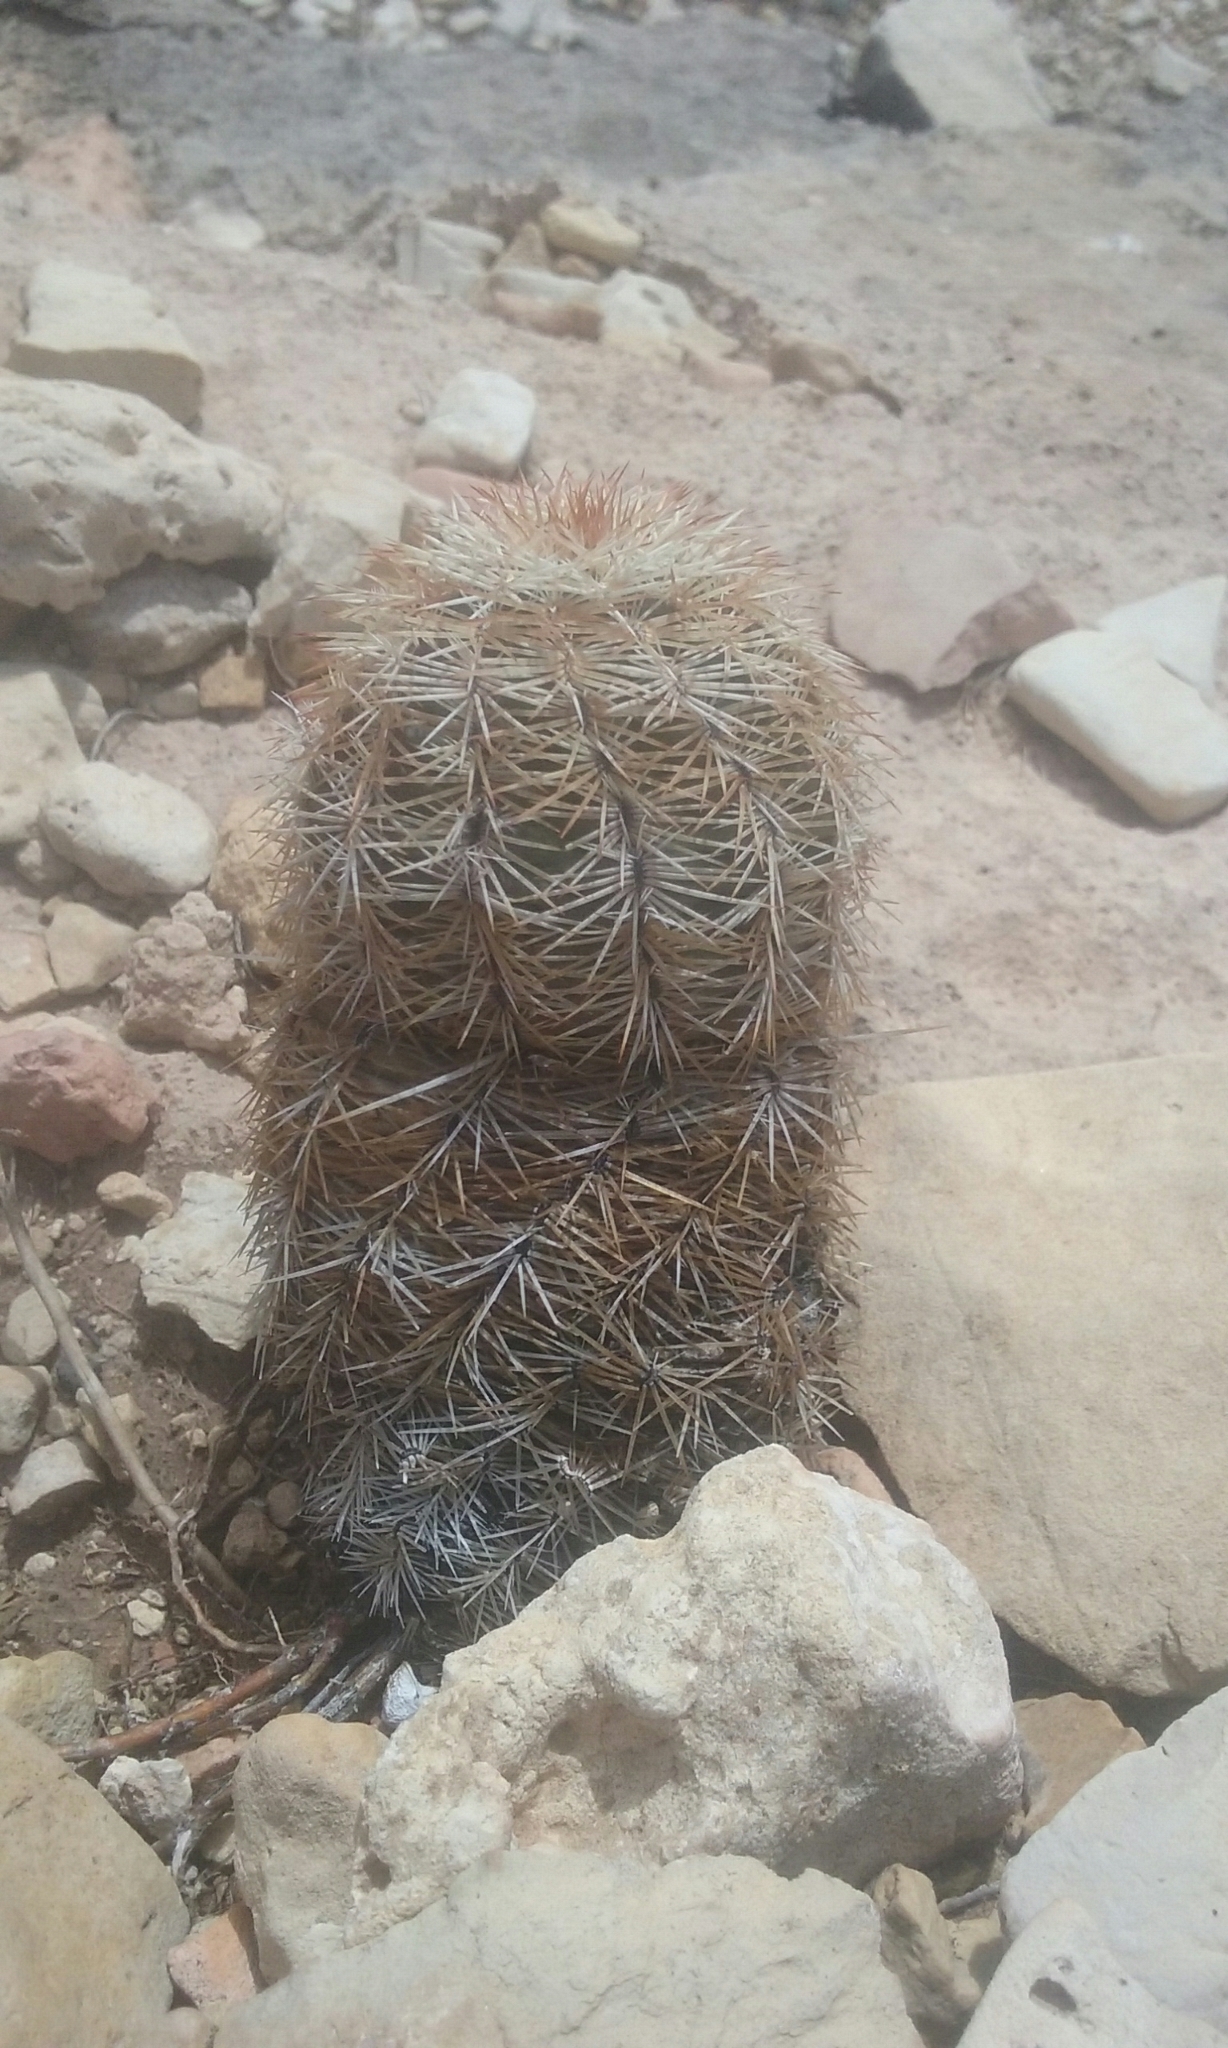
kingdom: Plantae
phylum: Tracheophyta
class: Magnoliopsida
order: Caryophyllales
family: Cactaceae
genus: Echinocereus
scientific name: Echinocereus viridiflorus
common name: Nylon hedgehog cactus
